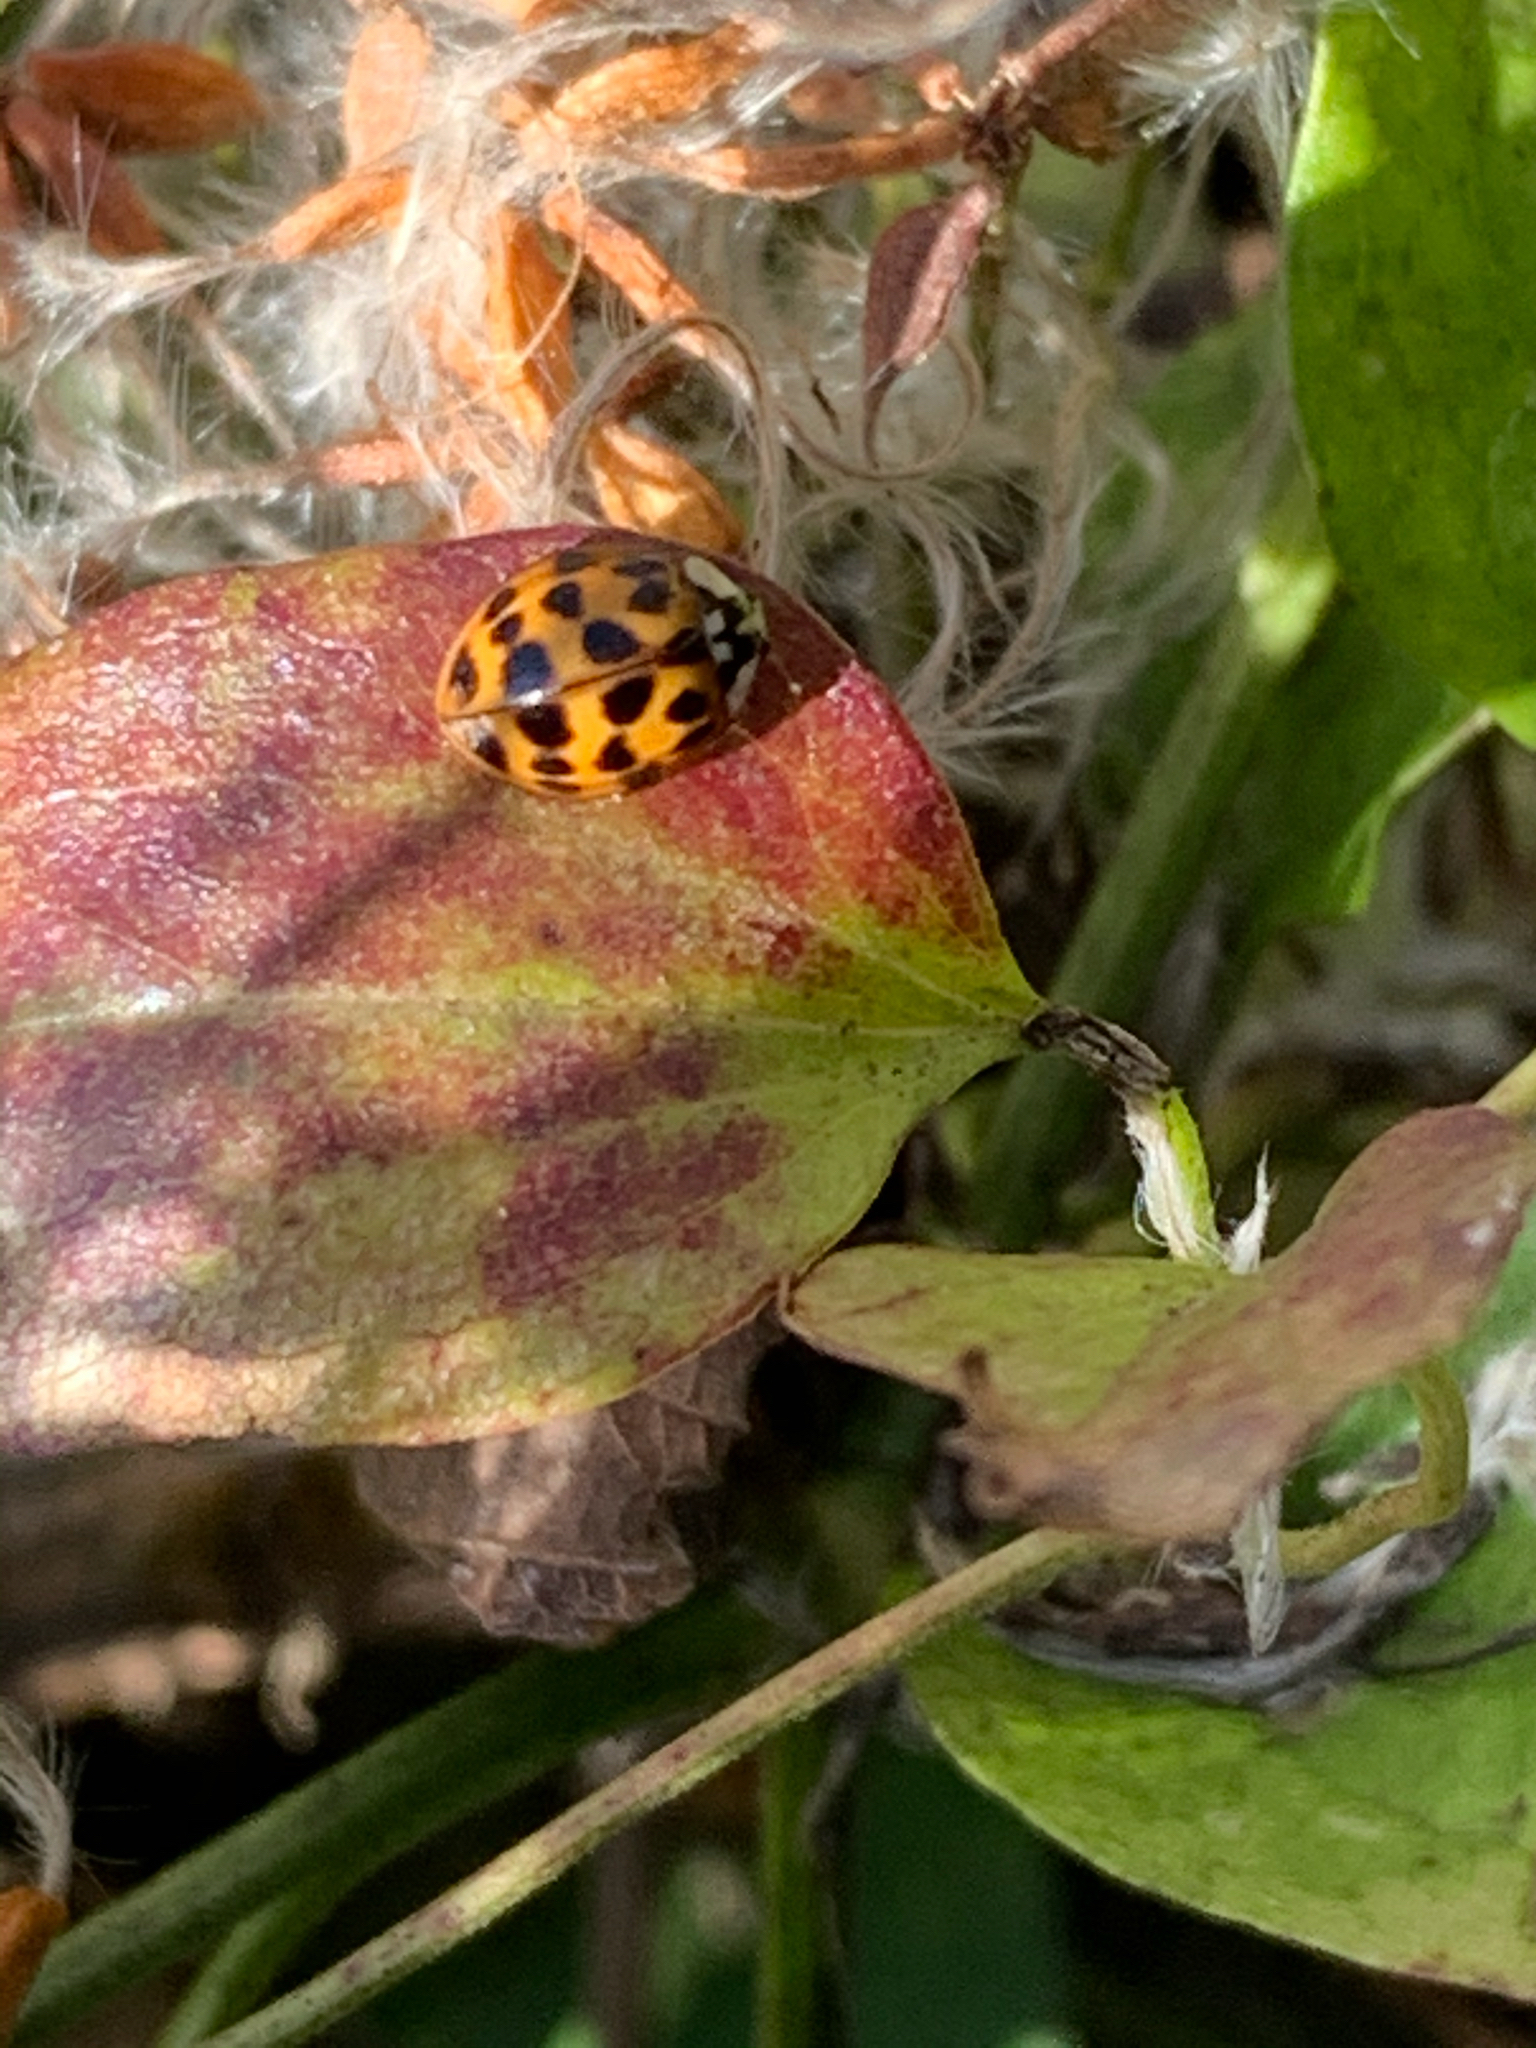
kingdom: Animalia
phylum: Arthropoda
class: Insecta
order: Coleoptera
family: Coccinellidae
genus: Harmonia
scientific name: Harmonia axyridis
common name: Harlequin ladybird
